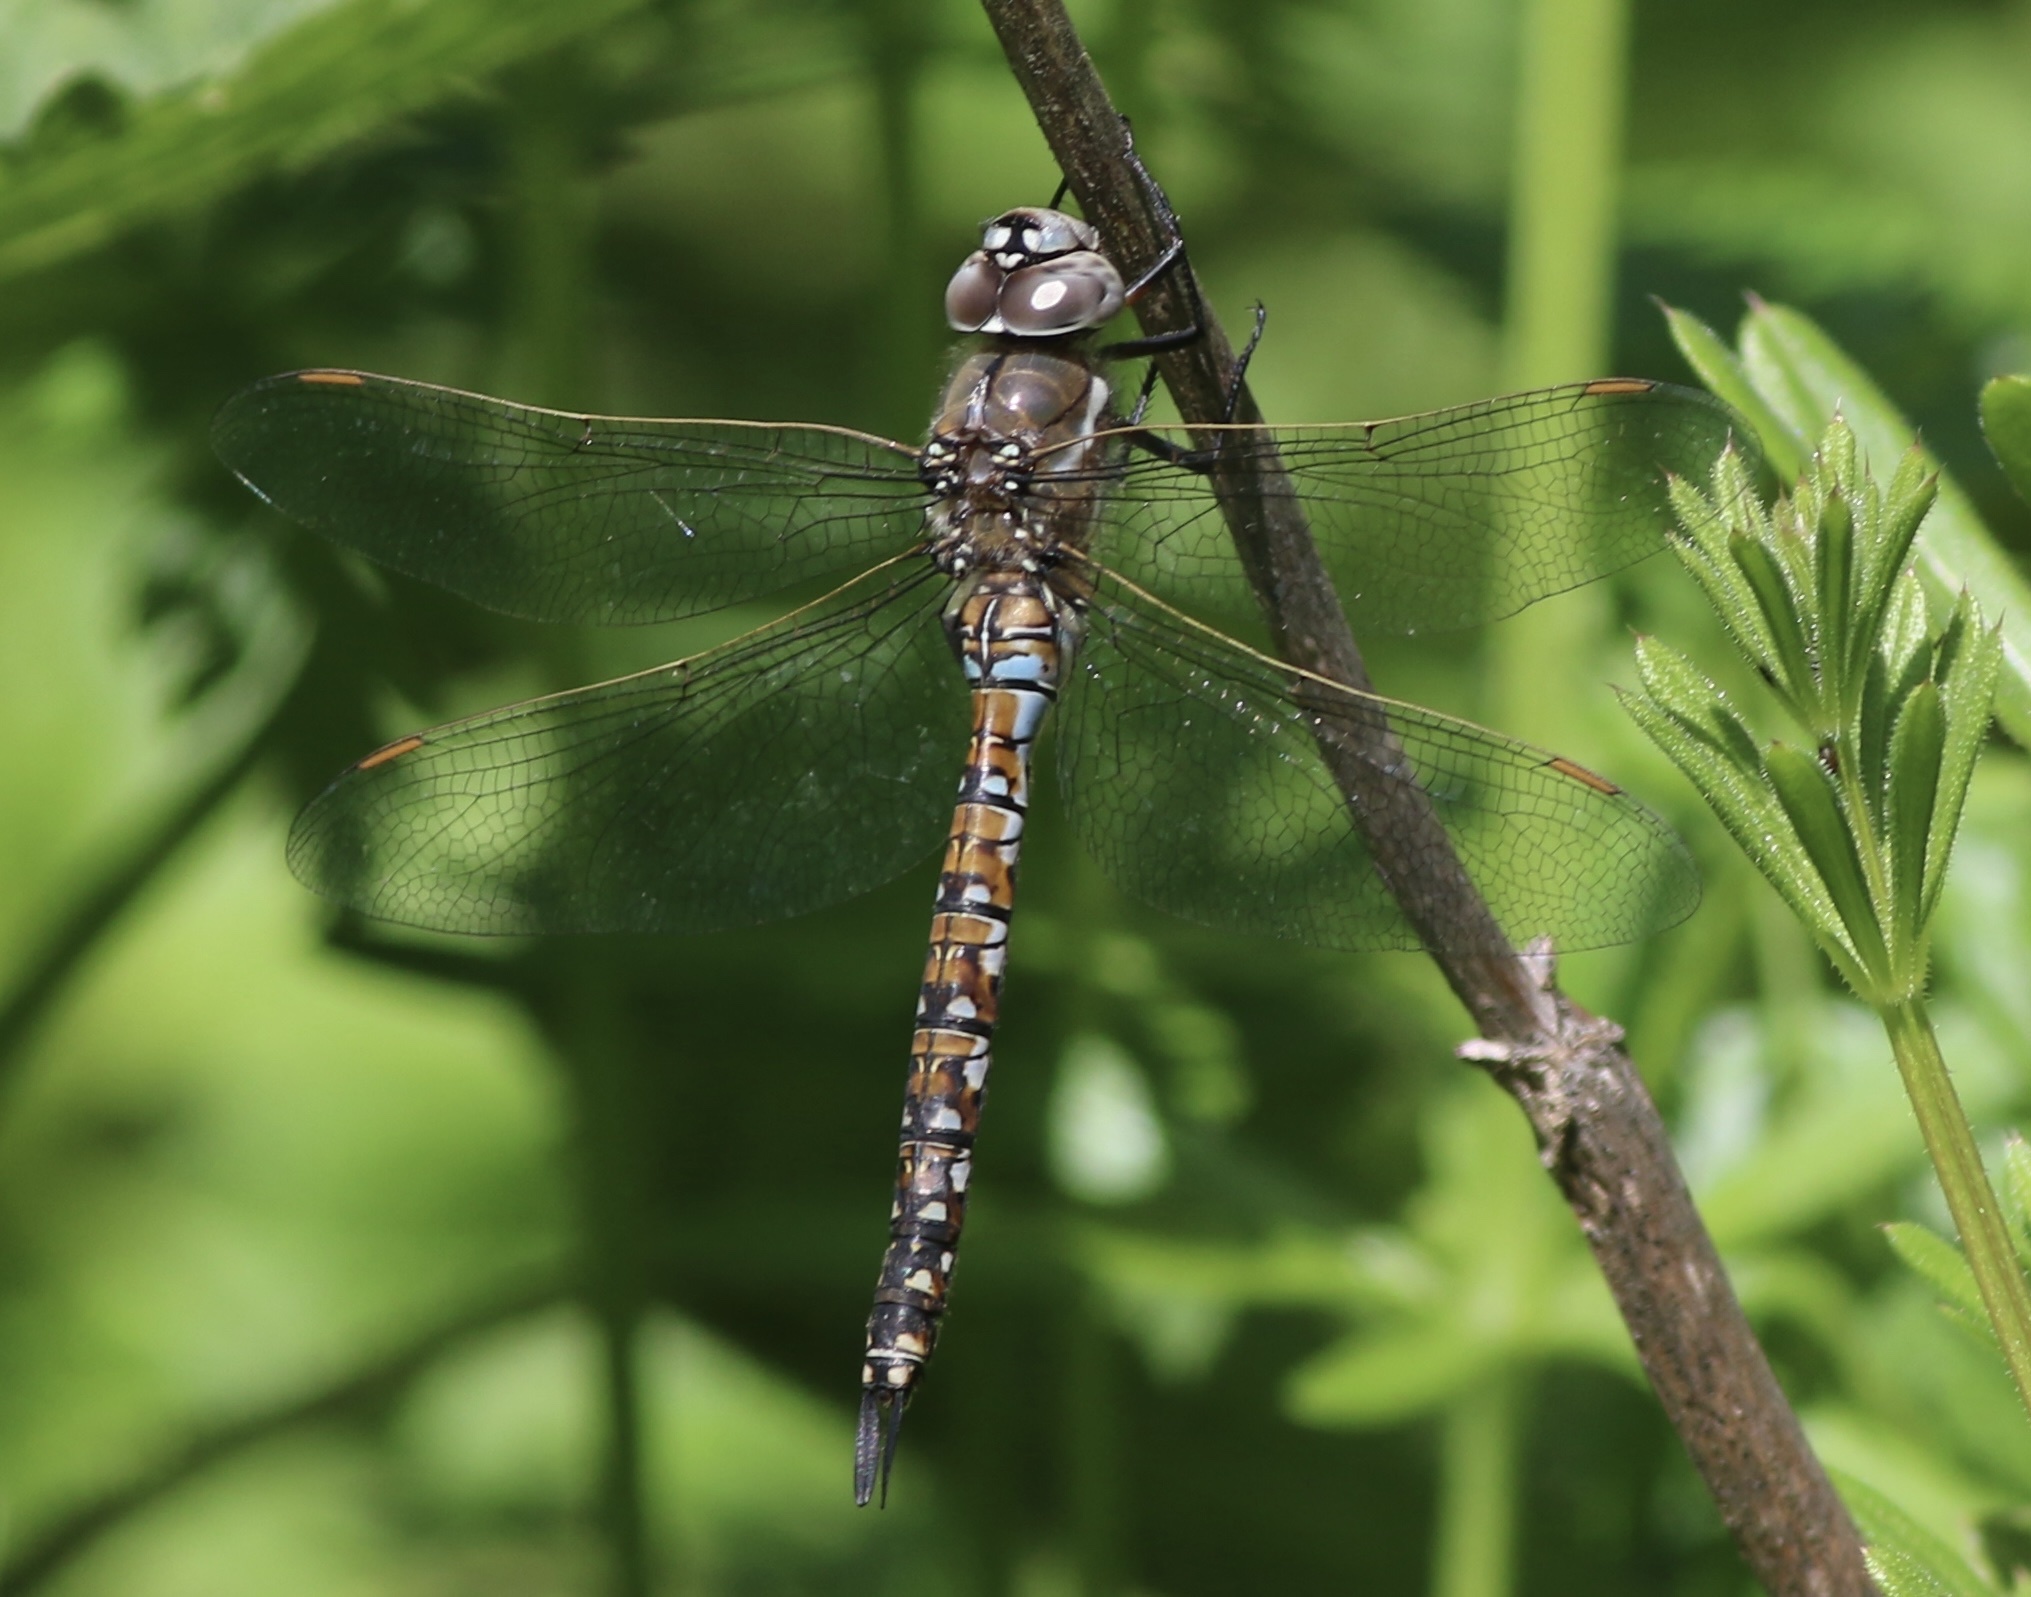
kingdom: Animalia
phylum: Arthropoda
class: Insecta
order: Odonata
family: Aeshnidae
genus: Rhionaeschna
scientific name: Rhionaeschna californica
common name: California darner
